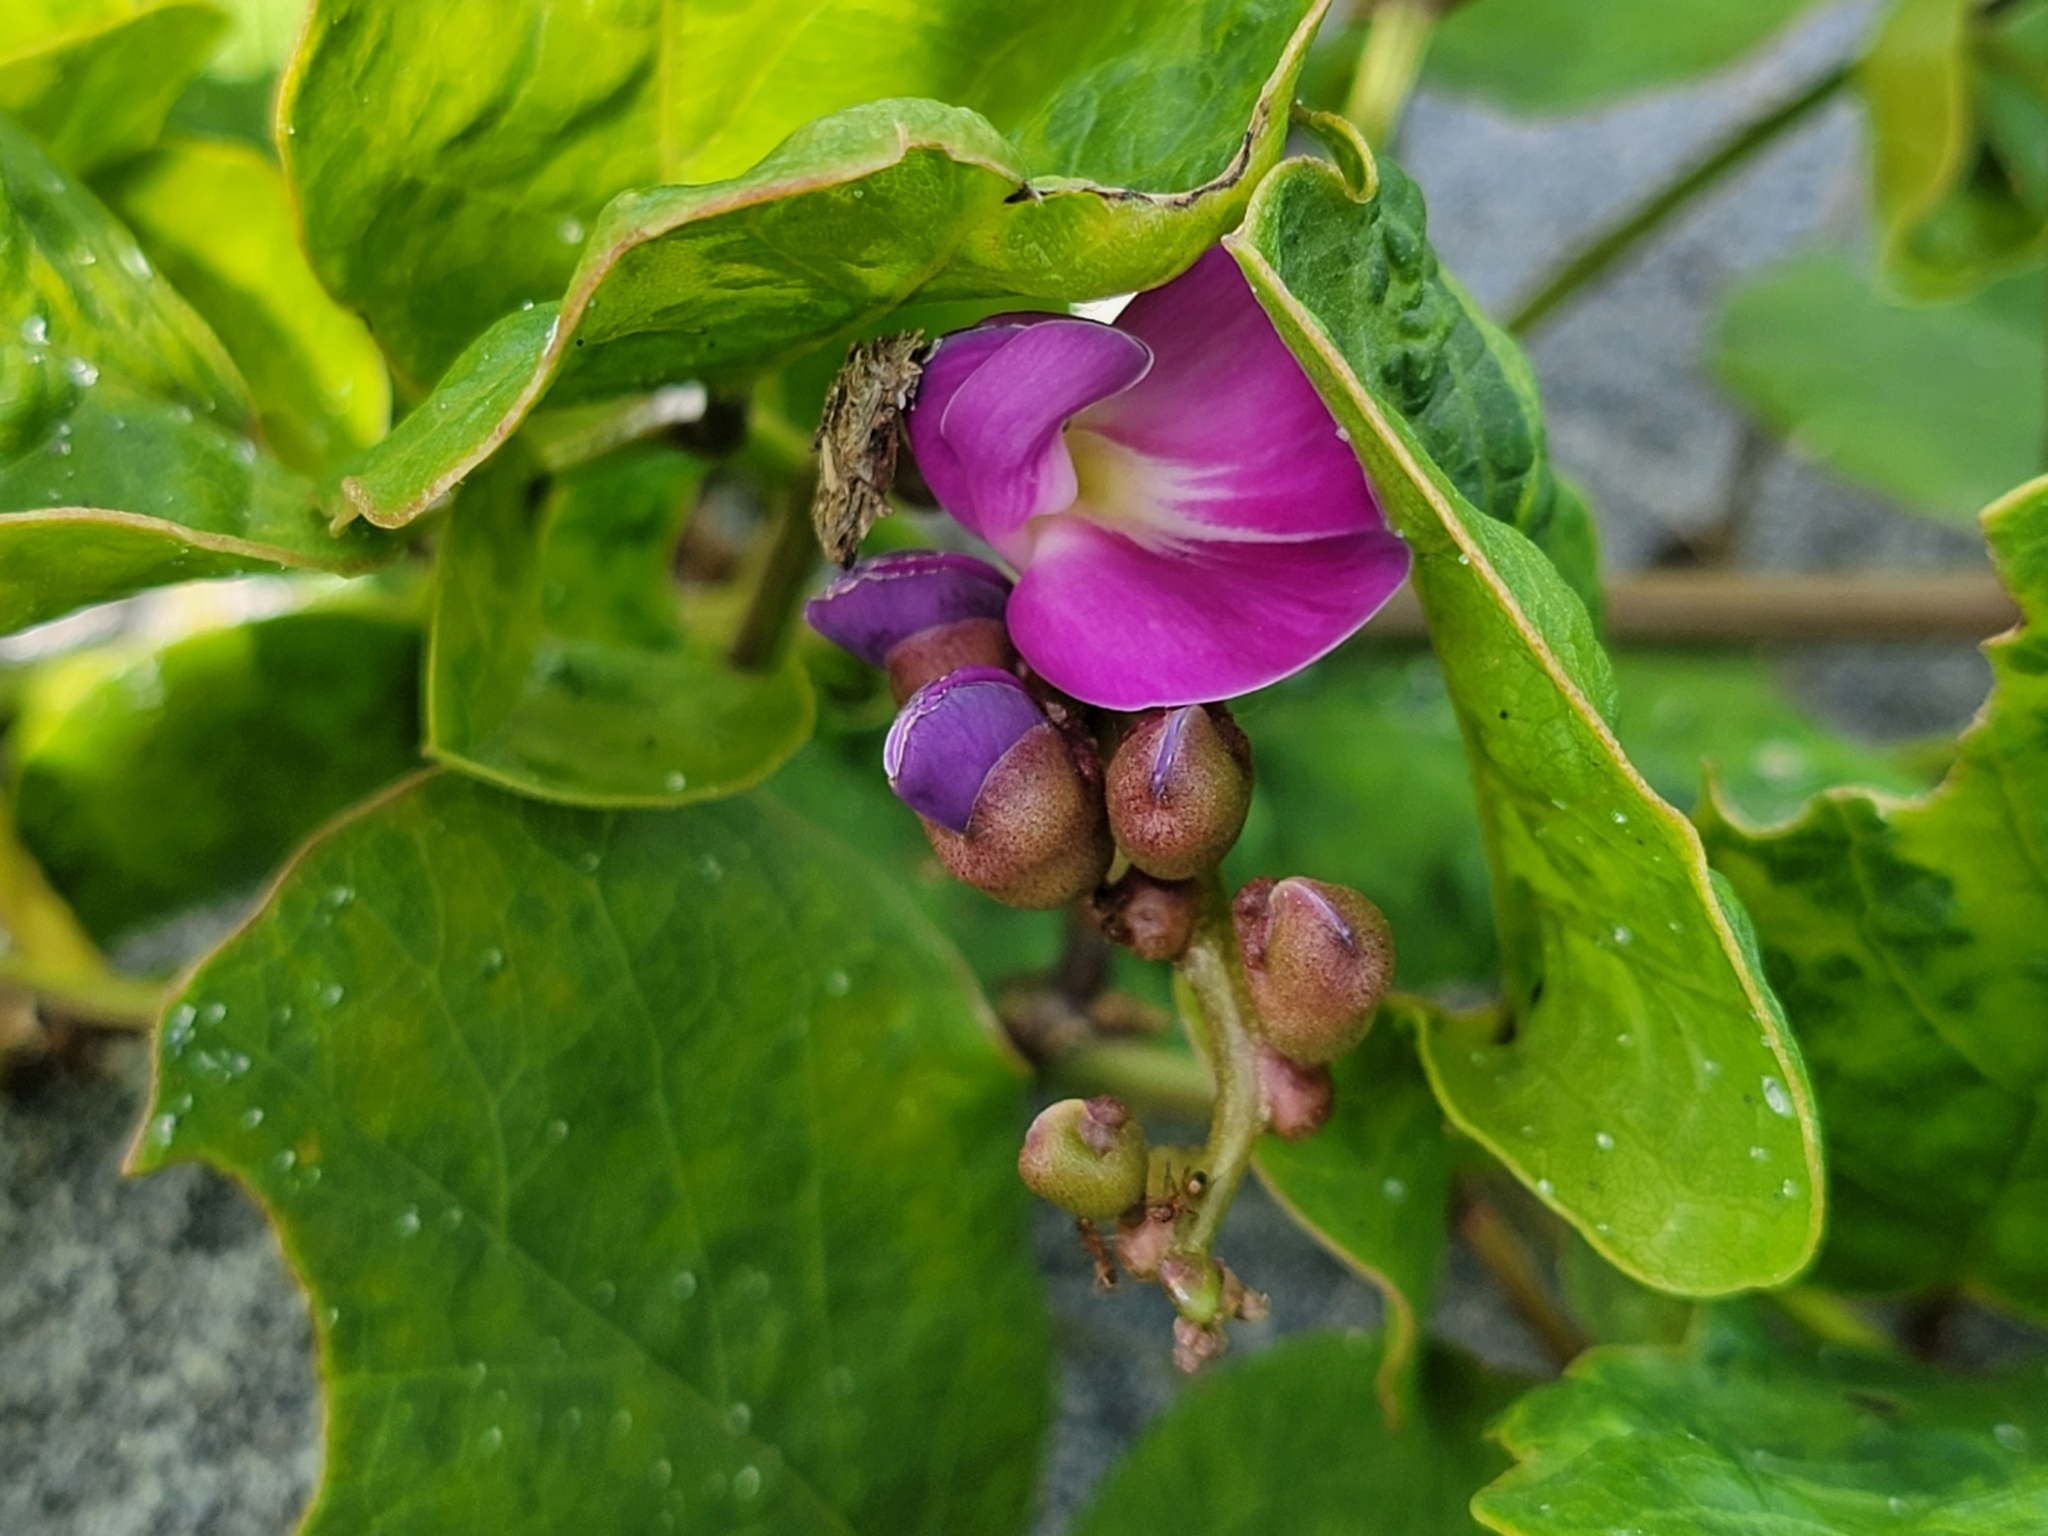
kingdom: Plantae
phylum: Tracheophyta
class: Magnoliopsida
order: Fabales
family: Fabaceae
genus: Canavalia
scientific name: Canavalia rosea
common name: Beach-bean
